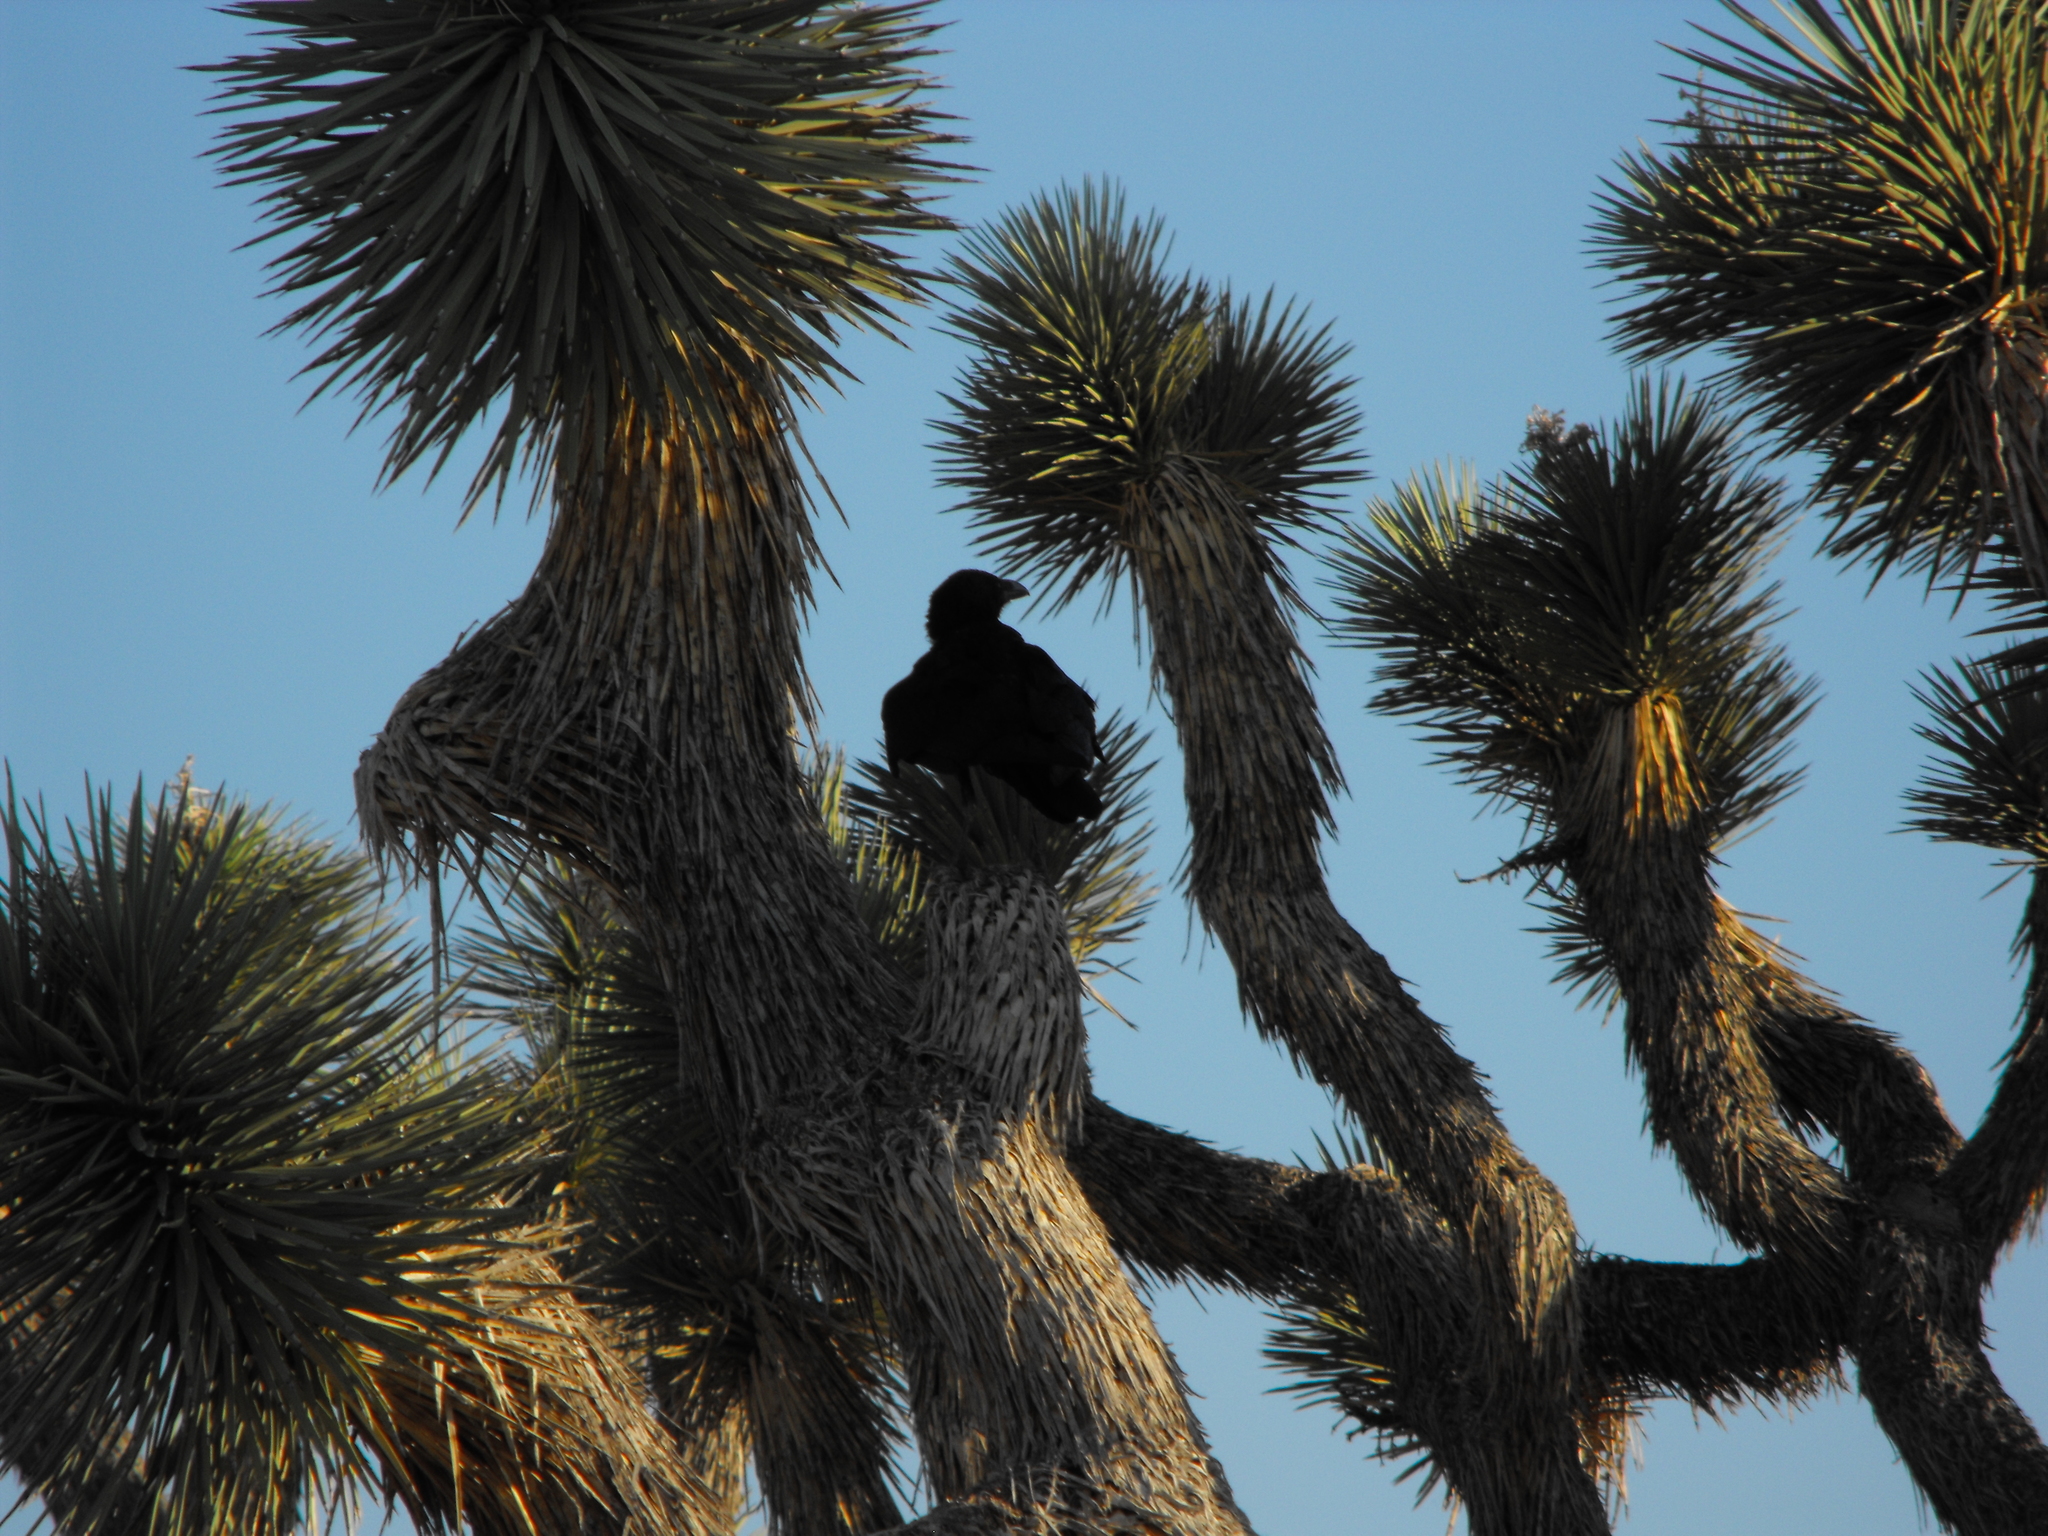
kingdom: Animalia
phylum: Chordata
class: Aves
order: Passeriformes
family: Corvidae
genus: Corvus
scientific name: Corvus corax
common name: Common raven
